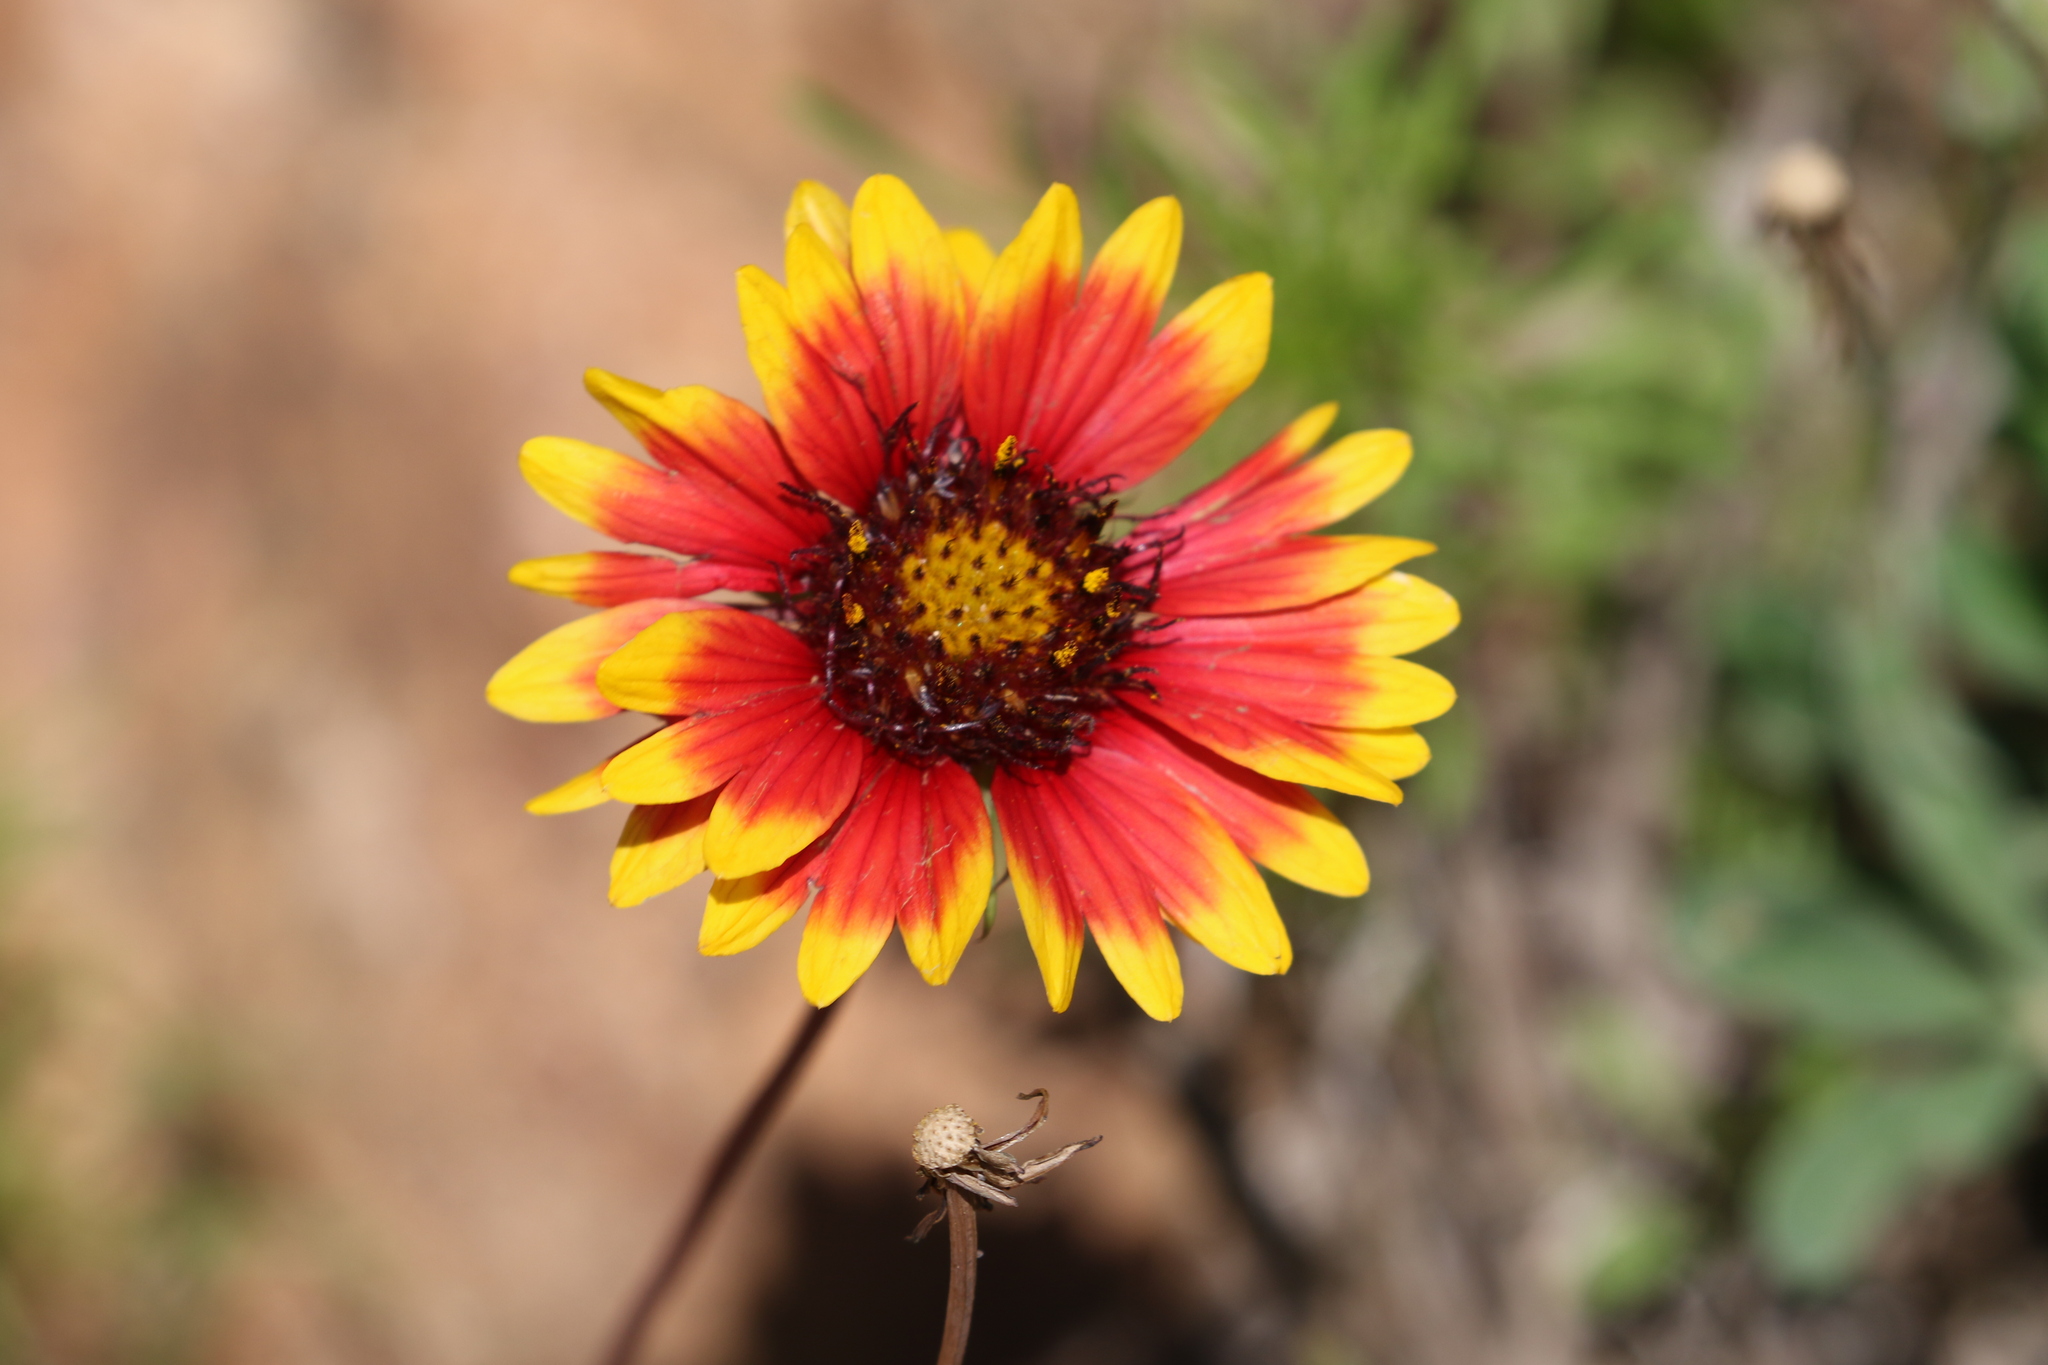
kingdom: Plantae
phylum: Tracheophyta
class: Magnoliopsida
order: Asterales
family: Asteraceae
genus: Gaillardia
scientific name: Gaillardia pulchella
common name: Firewheel
